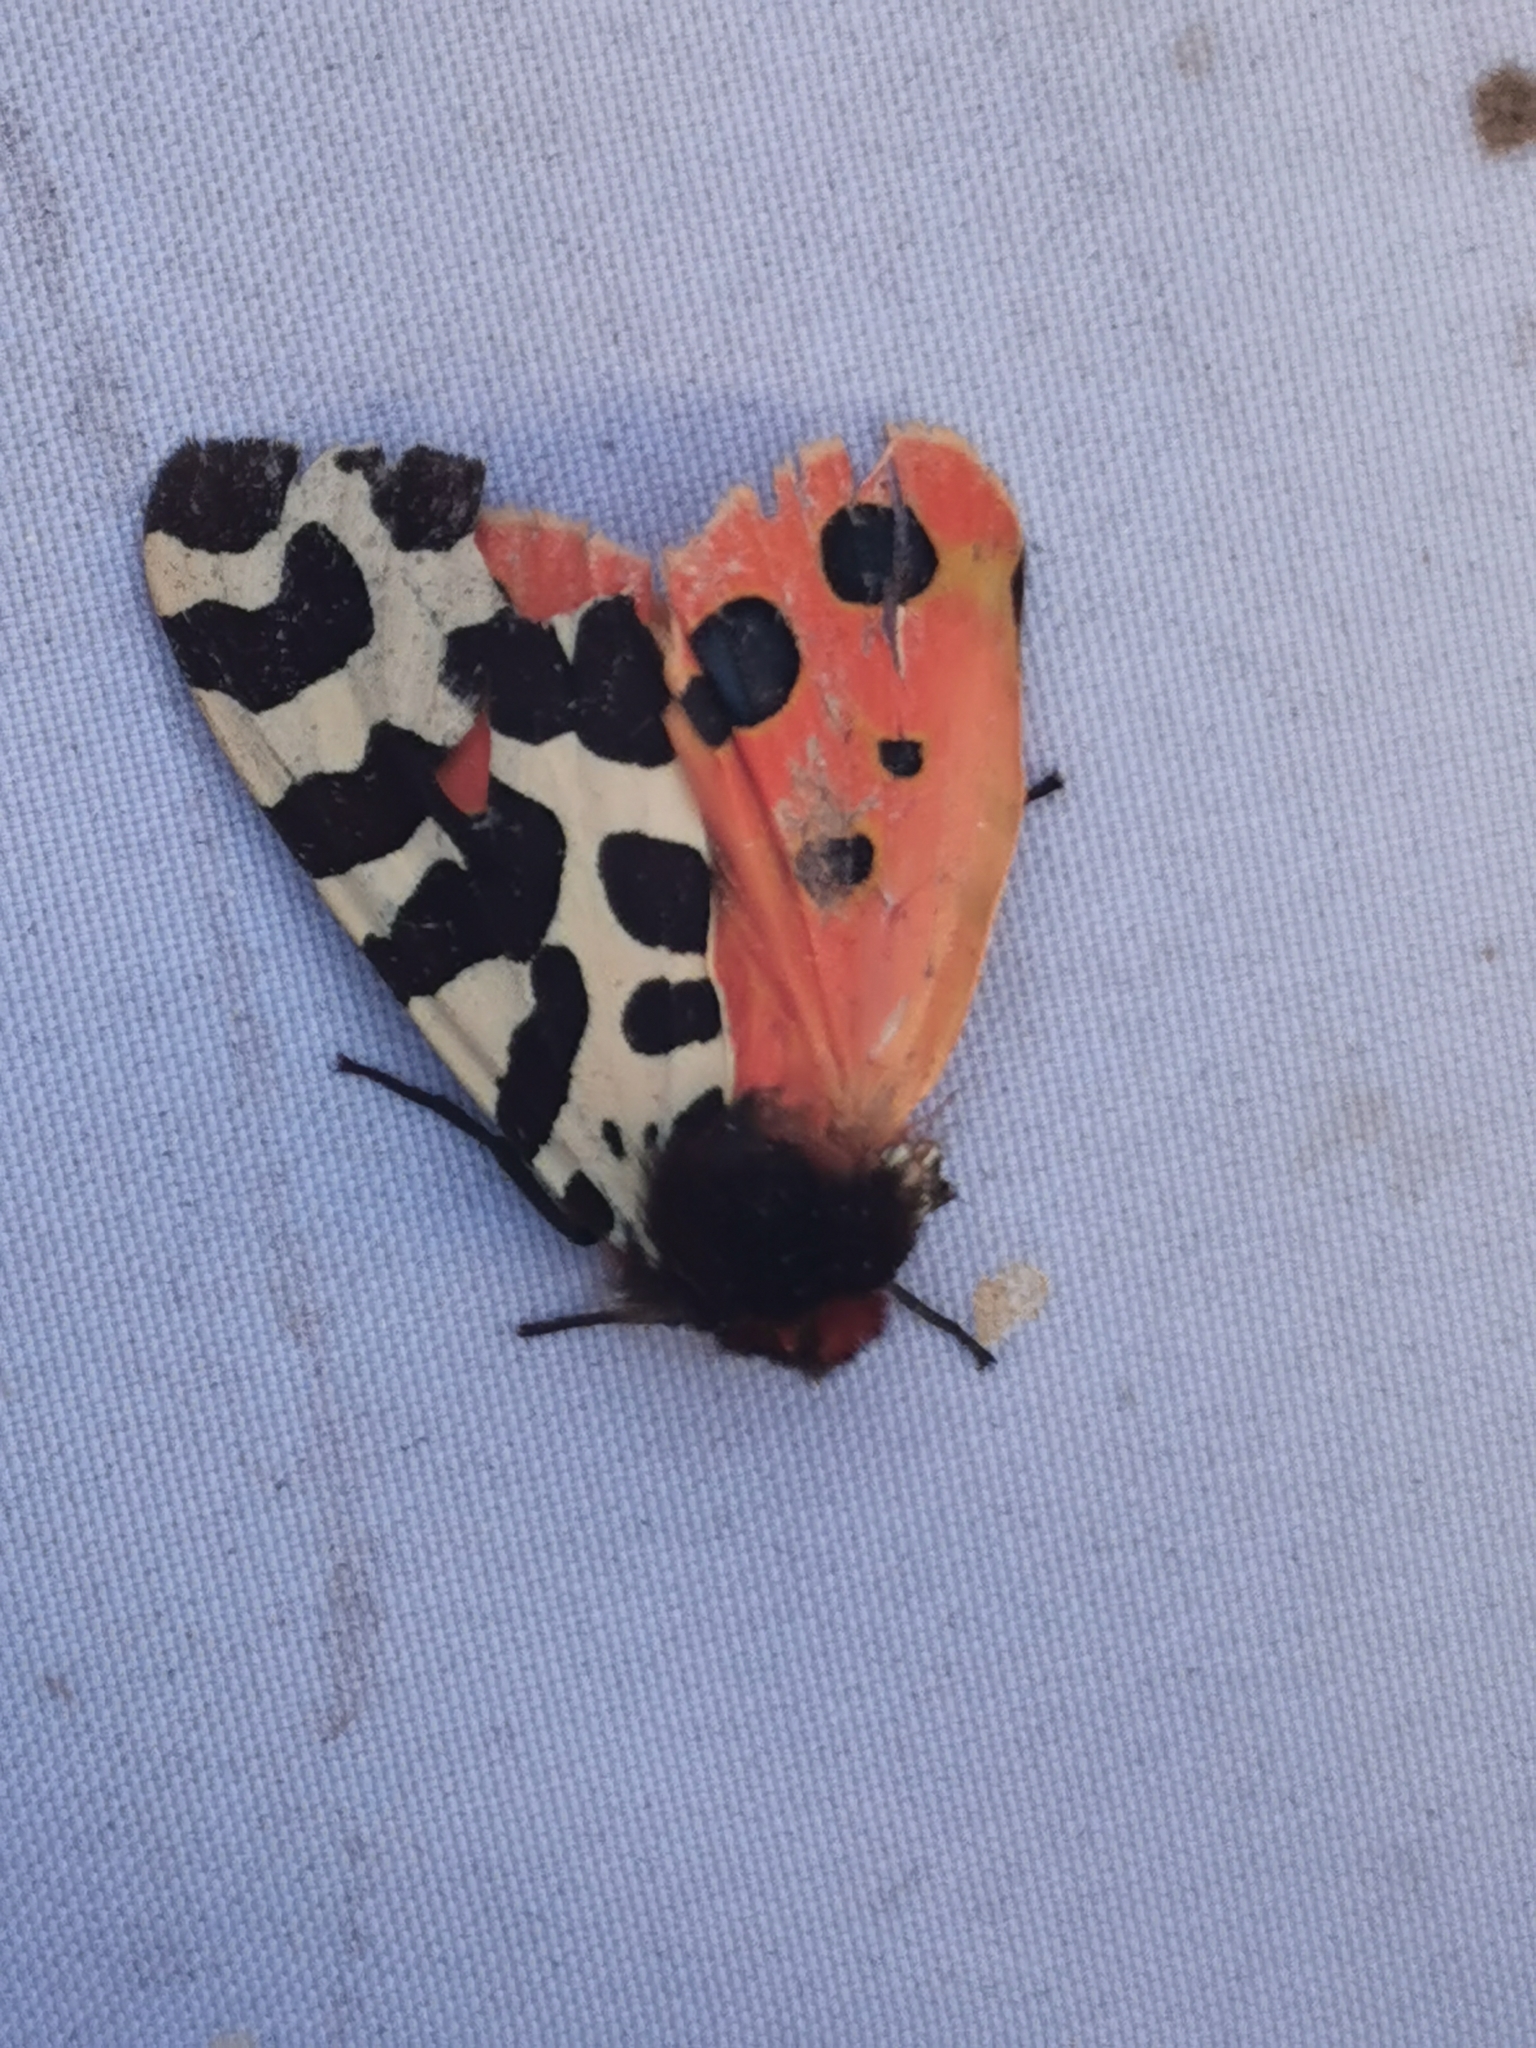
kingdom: Animalia
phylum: Arthropoda
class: Insecta
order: Lepidoptera
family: Erebidae
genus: Arctia
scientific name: Arctia caja
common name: Garden tiger
